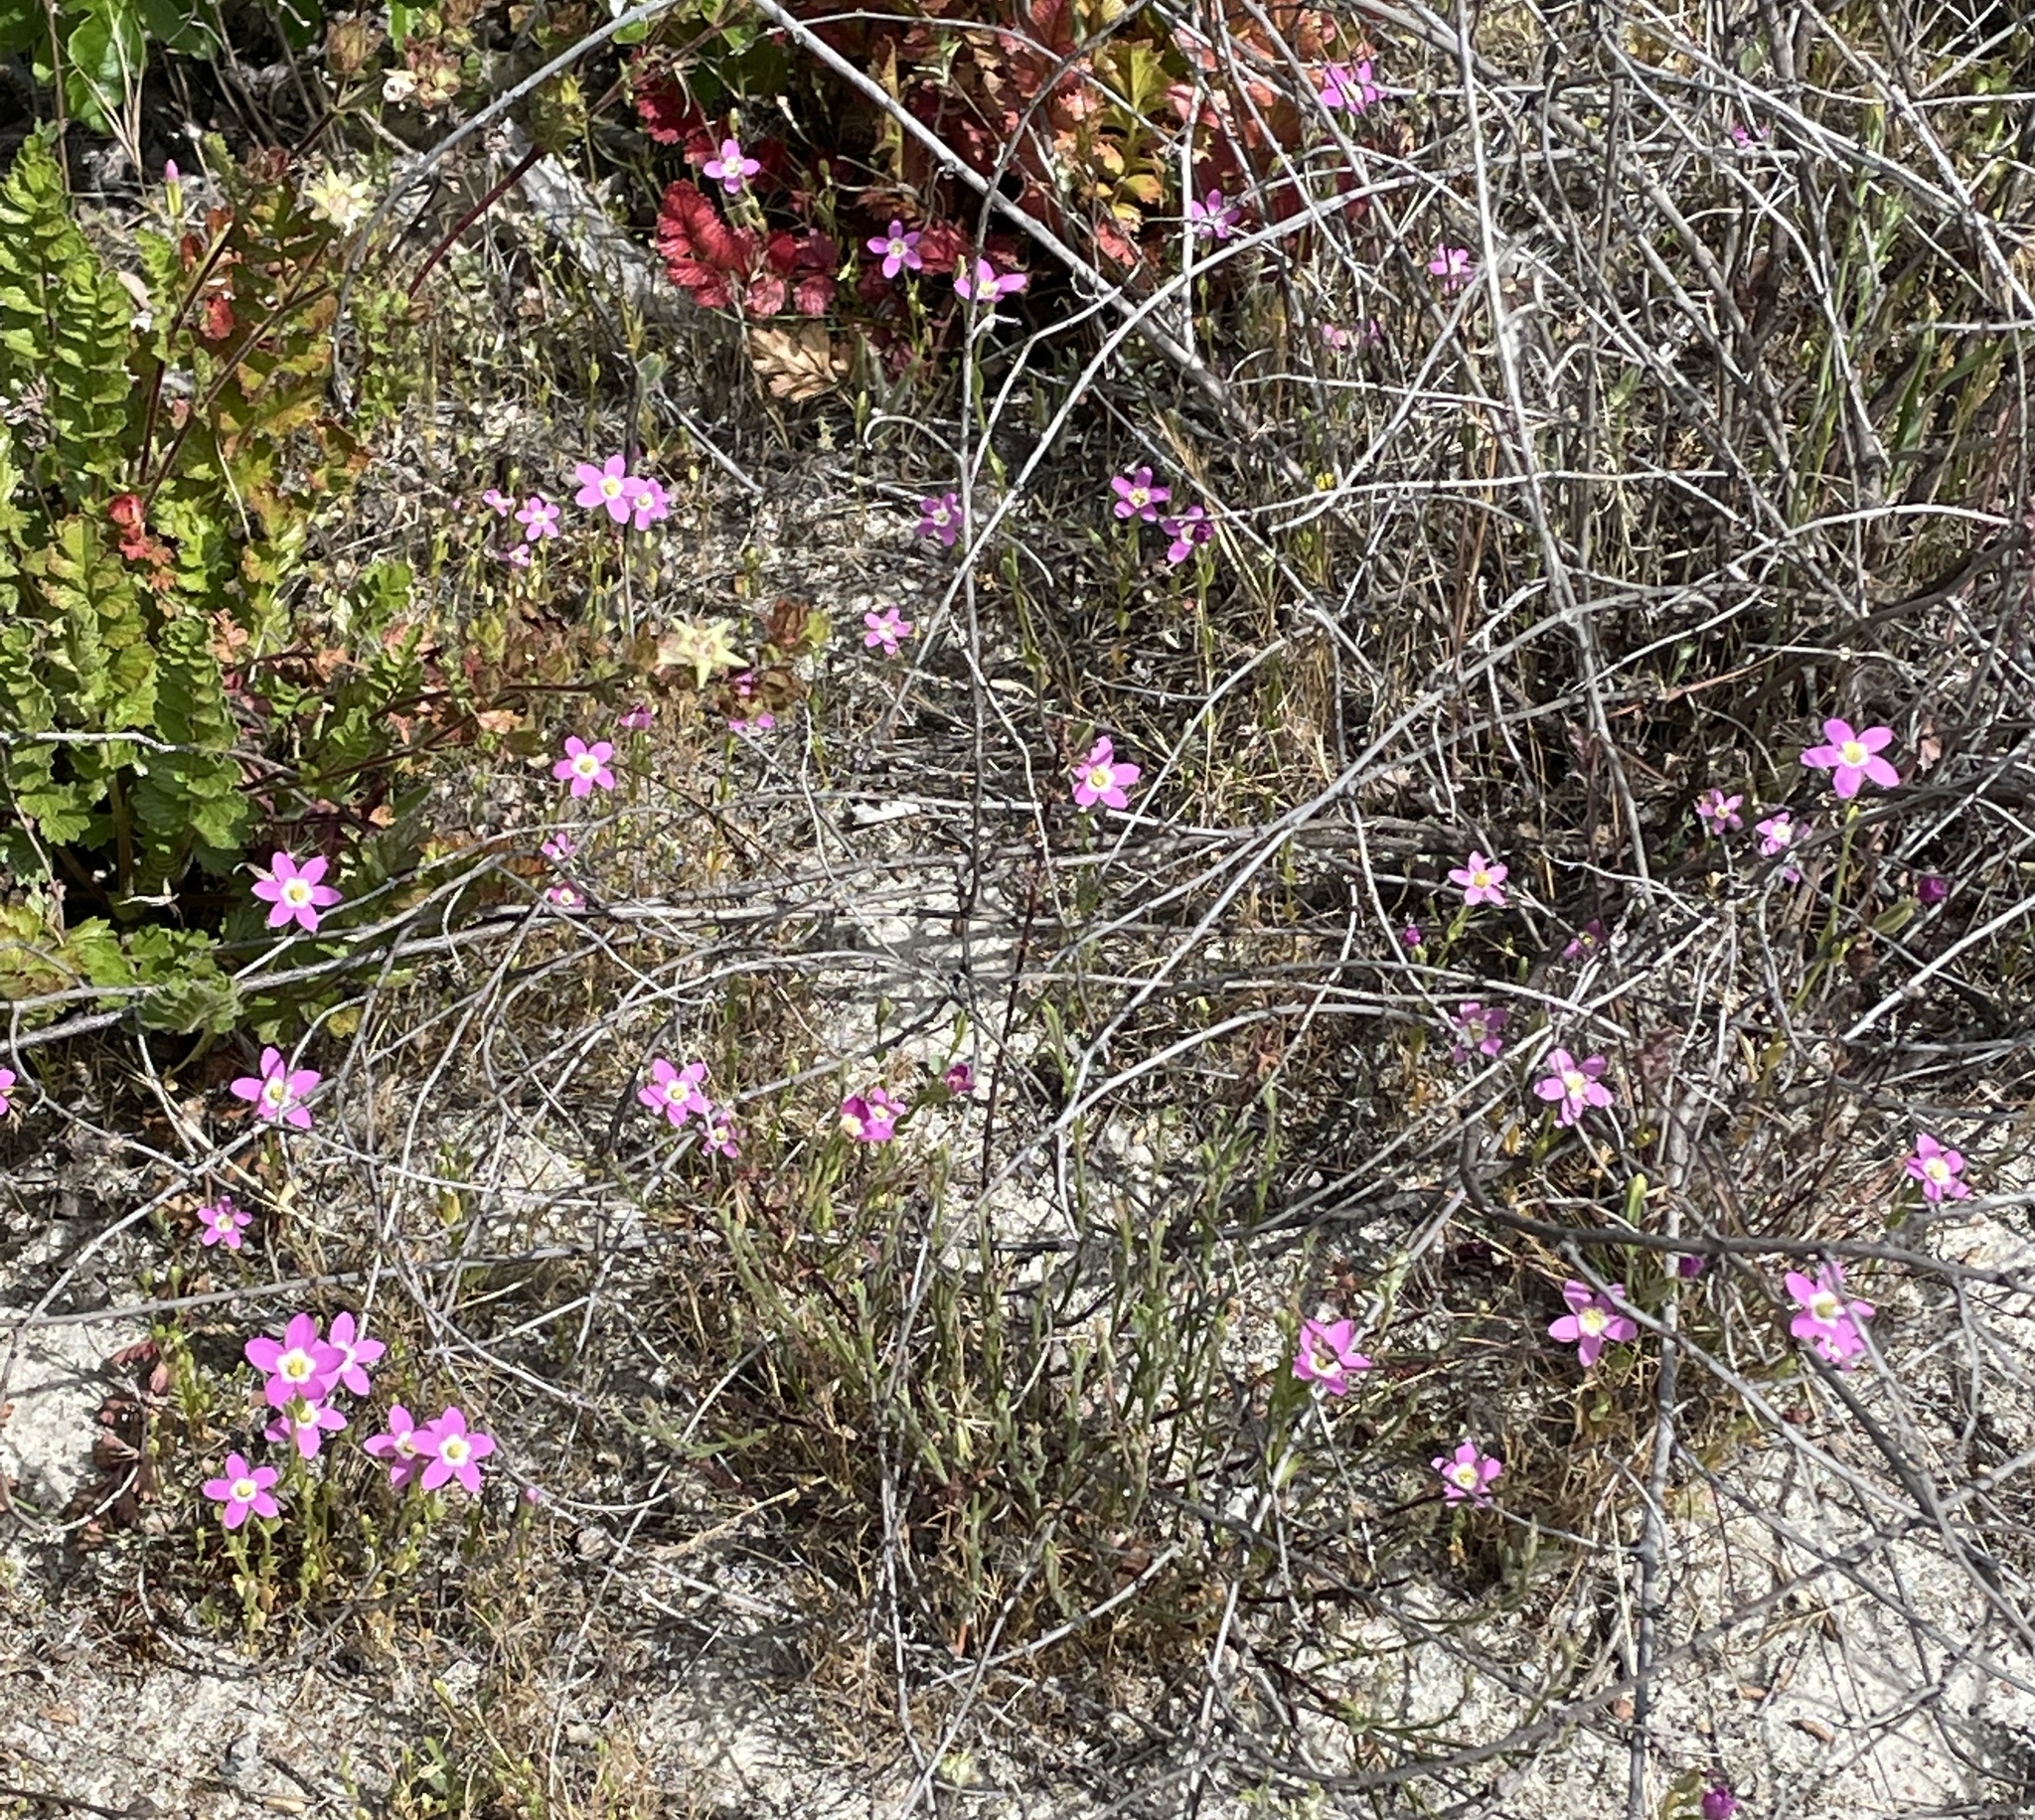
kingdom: Plantae
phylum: Tracheophyta
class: Magnoliopsida
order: Gentianales
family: Gentianaceae
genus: Zeltnera
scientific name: Zeltnera davyi
